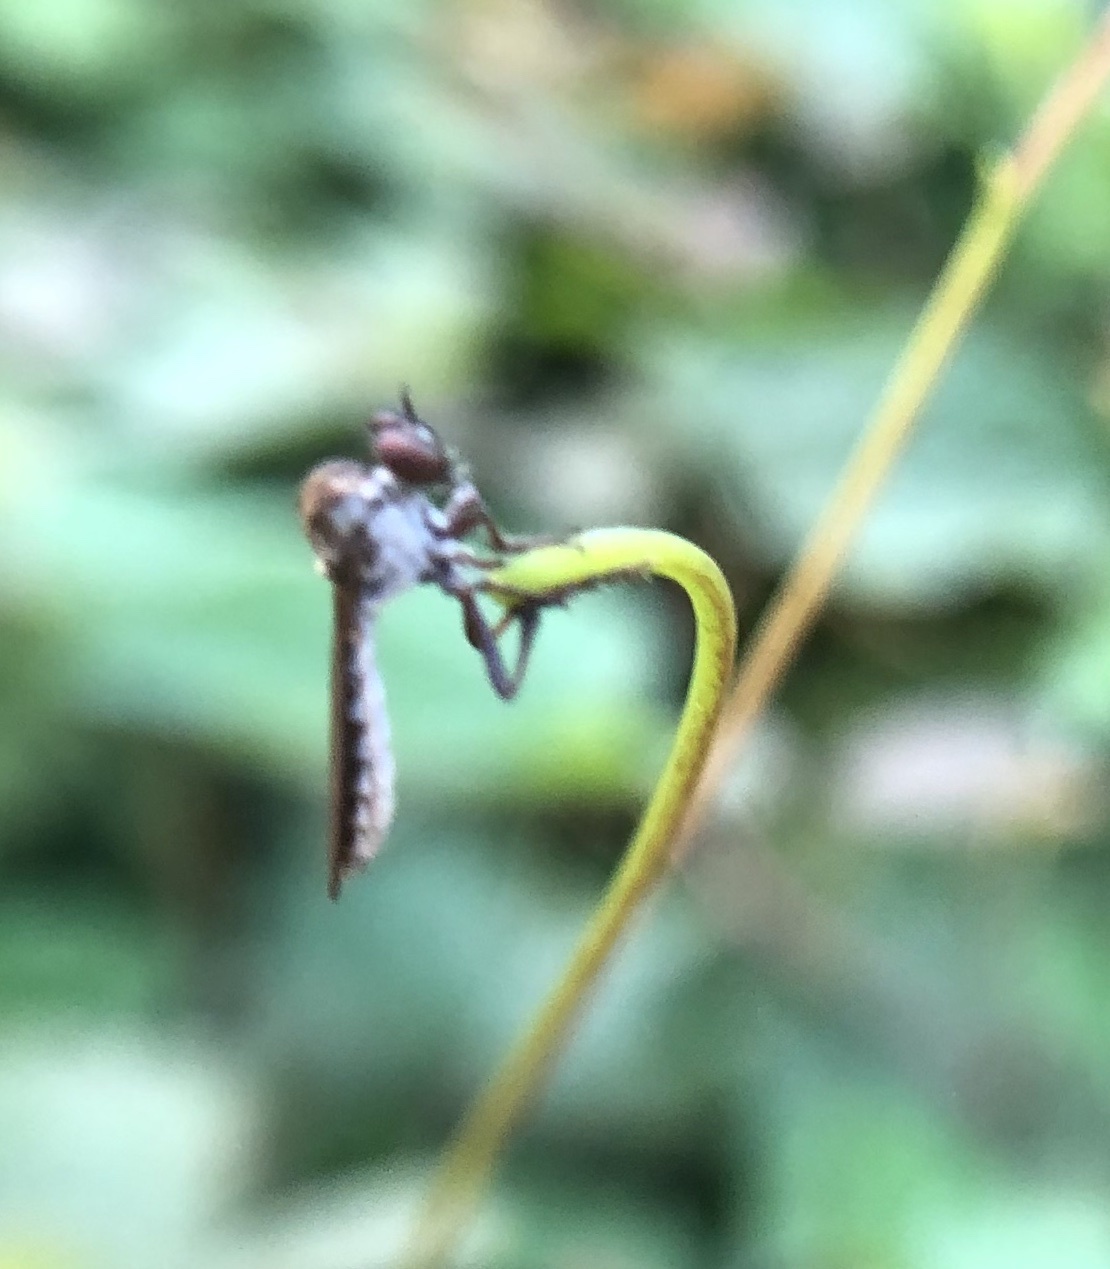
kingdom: Animalia
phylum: Arthropoda
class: Insecta
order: Diptera
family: Asilidae
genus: Holcocephala
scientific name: Holcocephala calva
